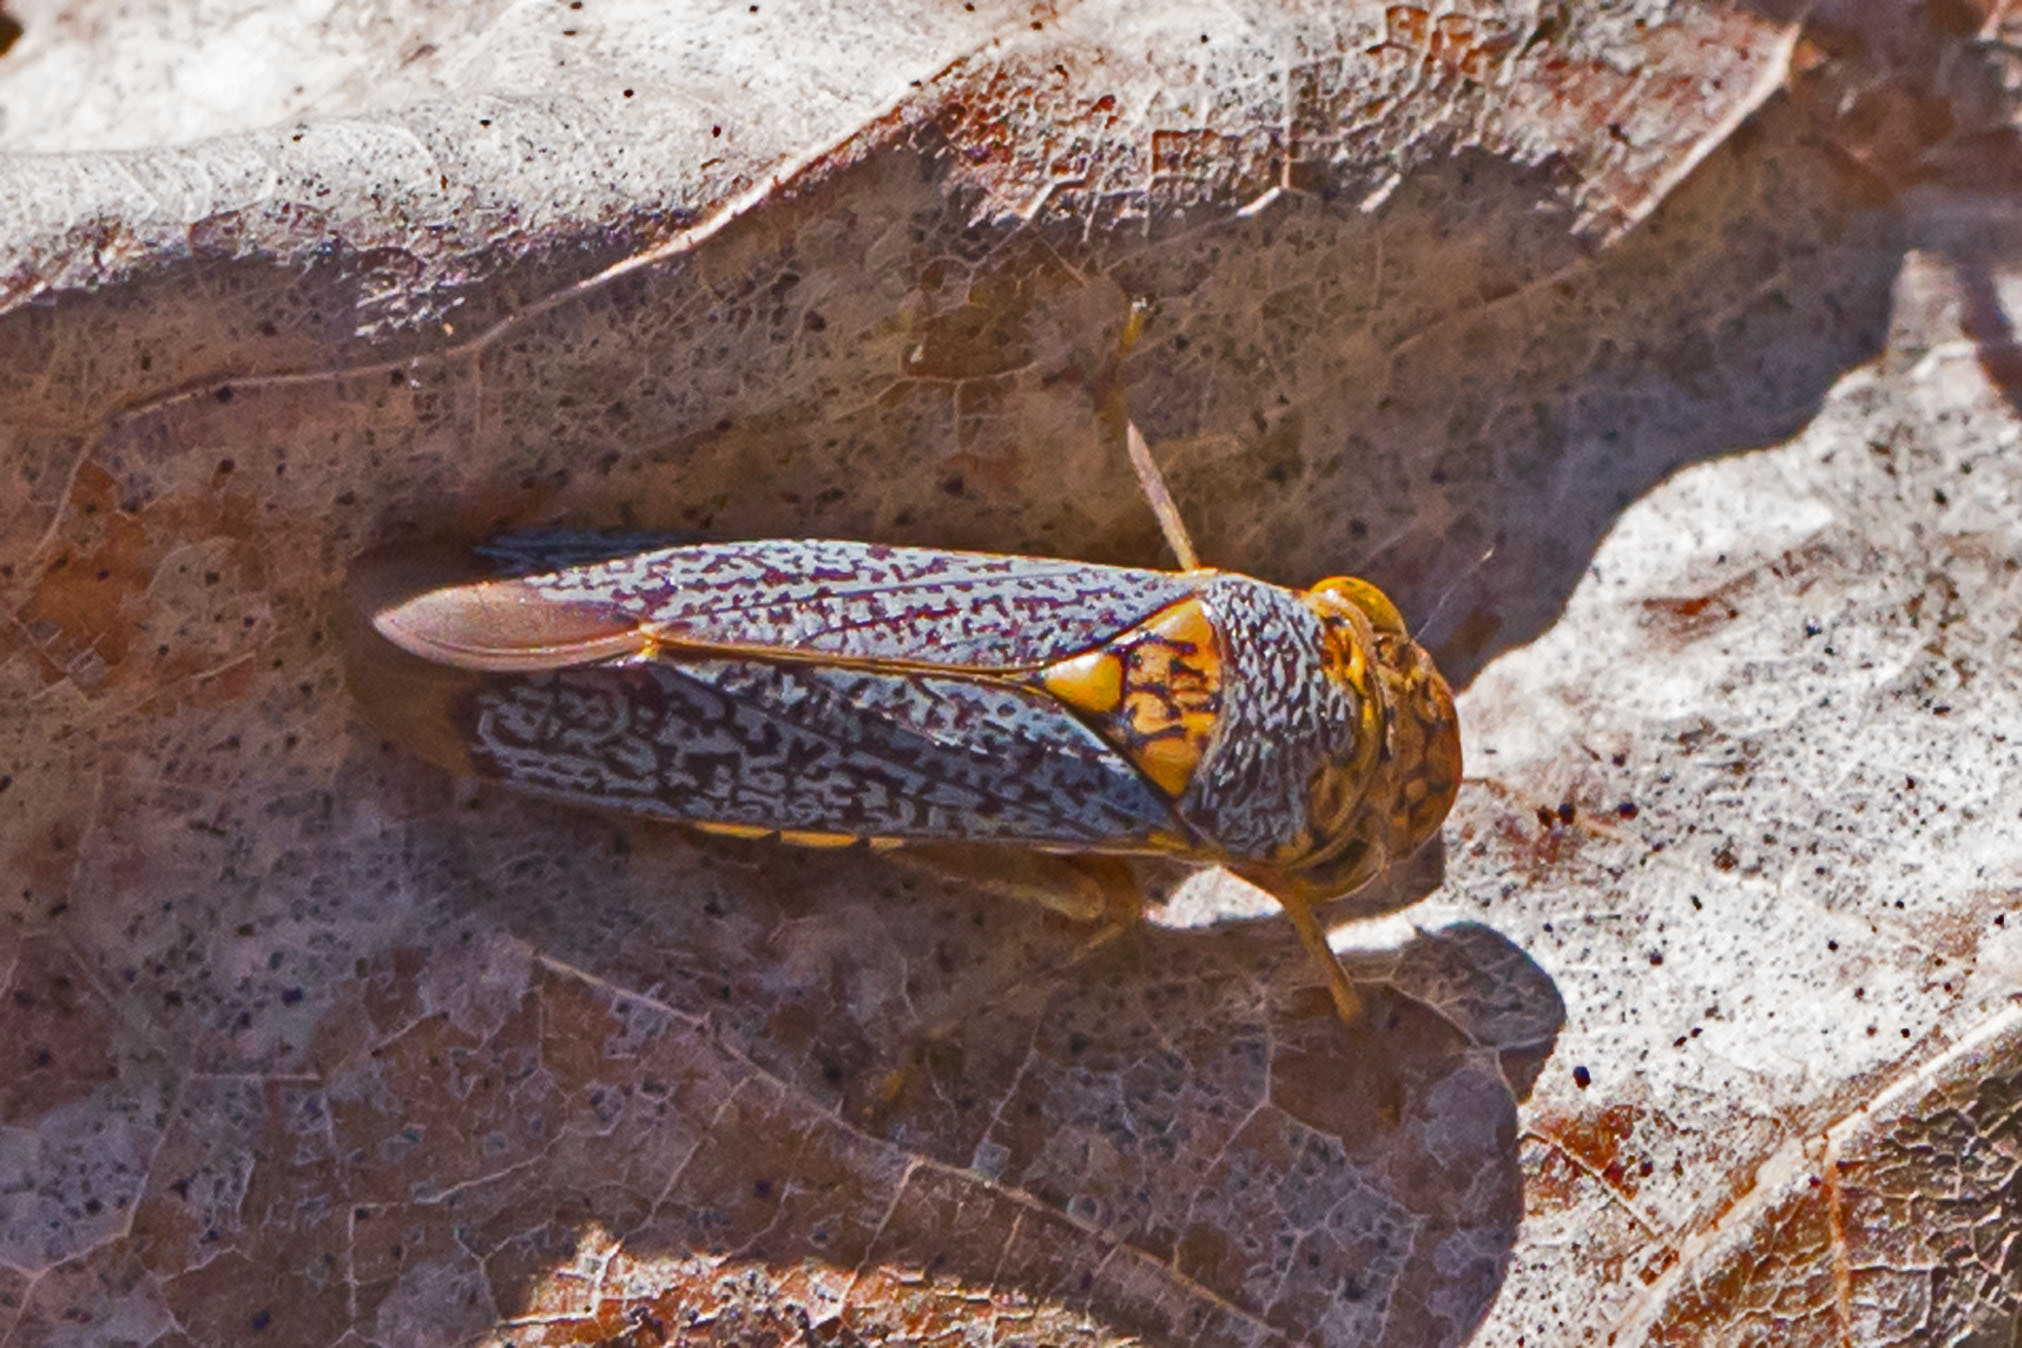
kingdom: Animalia
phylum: Arthropoda
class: Insecta
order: Hemiptera
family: Cicadellidae
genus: Oncometopia
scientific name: Oncometopia orbona
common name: Broad-headed sharpshooter
